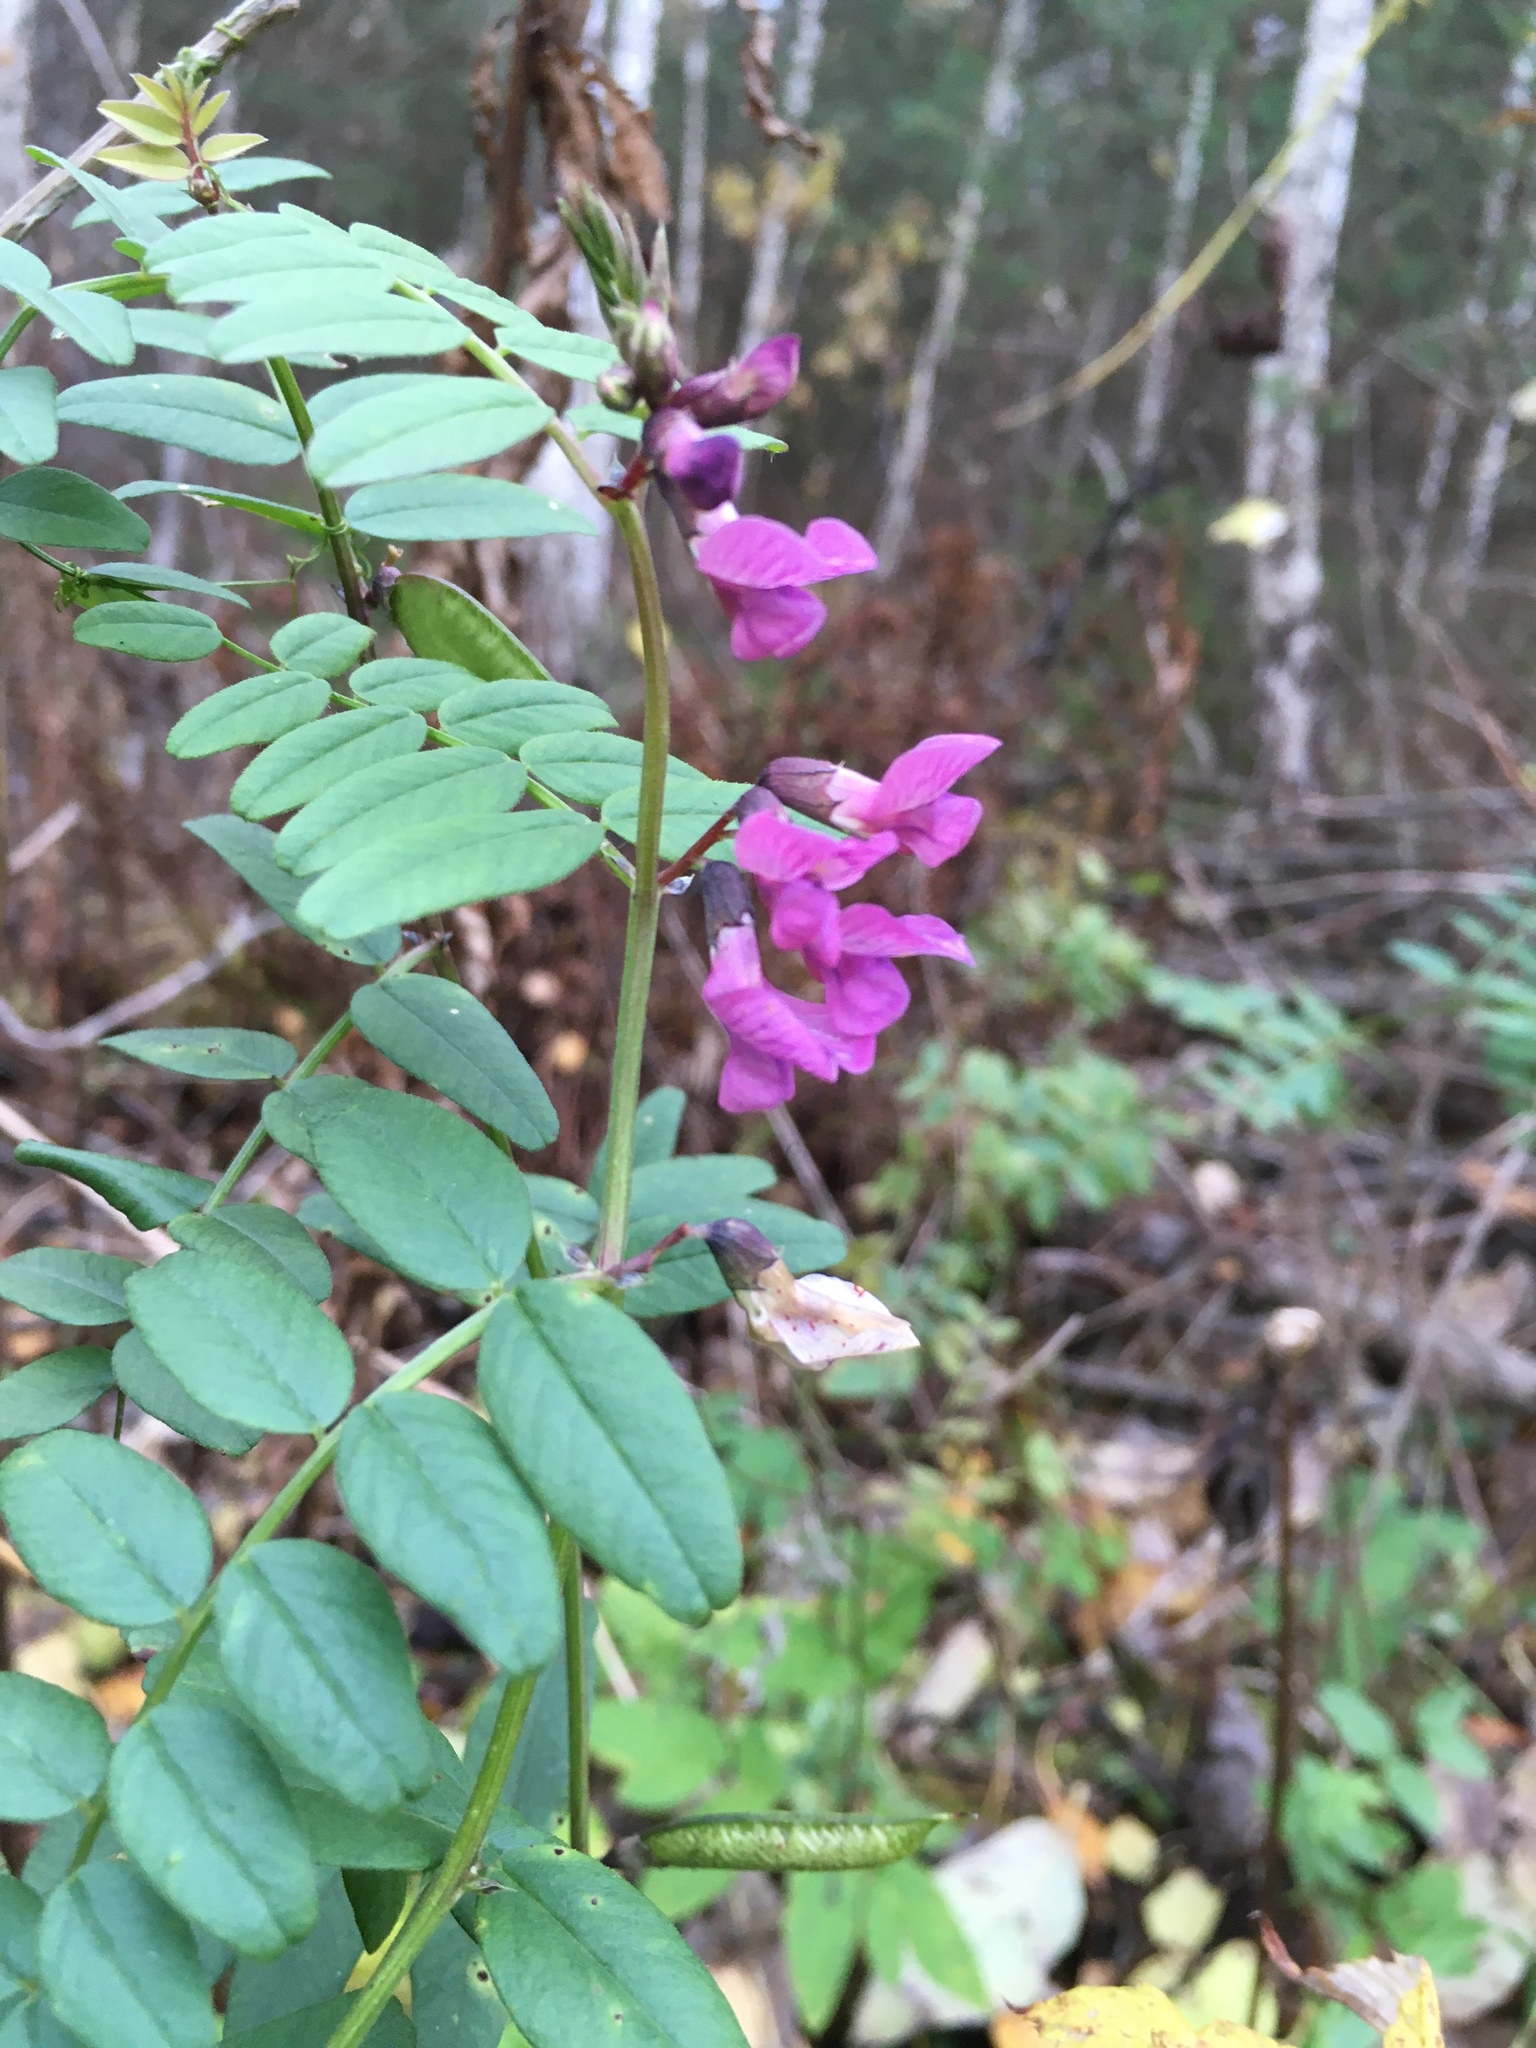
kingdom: Plantae
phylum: Tracheophyta
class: Magnoliopsida
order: Fabales
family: Fabaceae
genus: Vicia
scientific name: Vicia sepium
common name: Bush vetch
